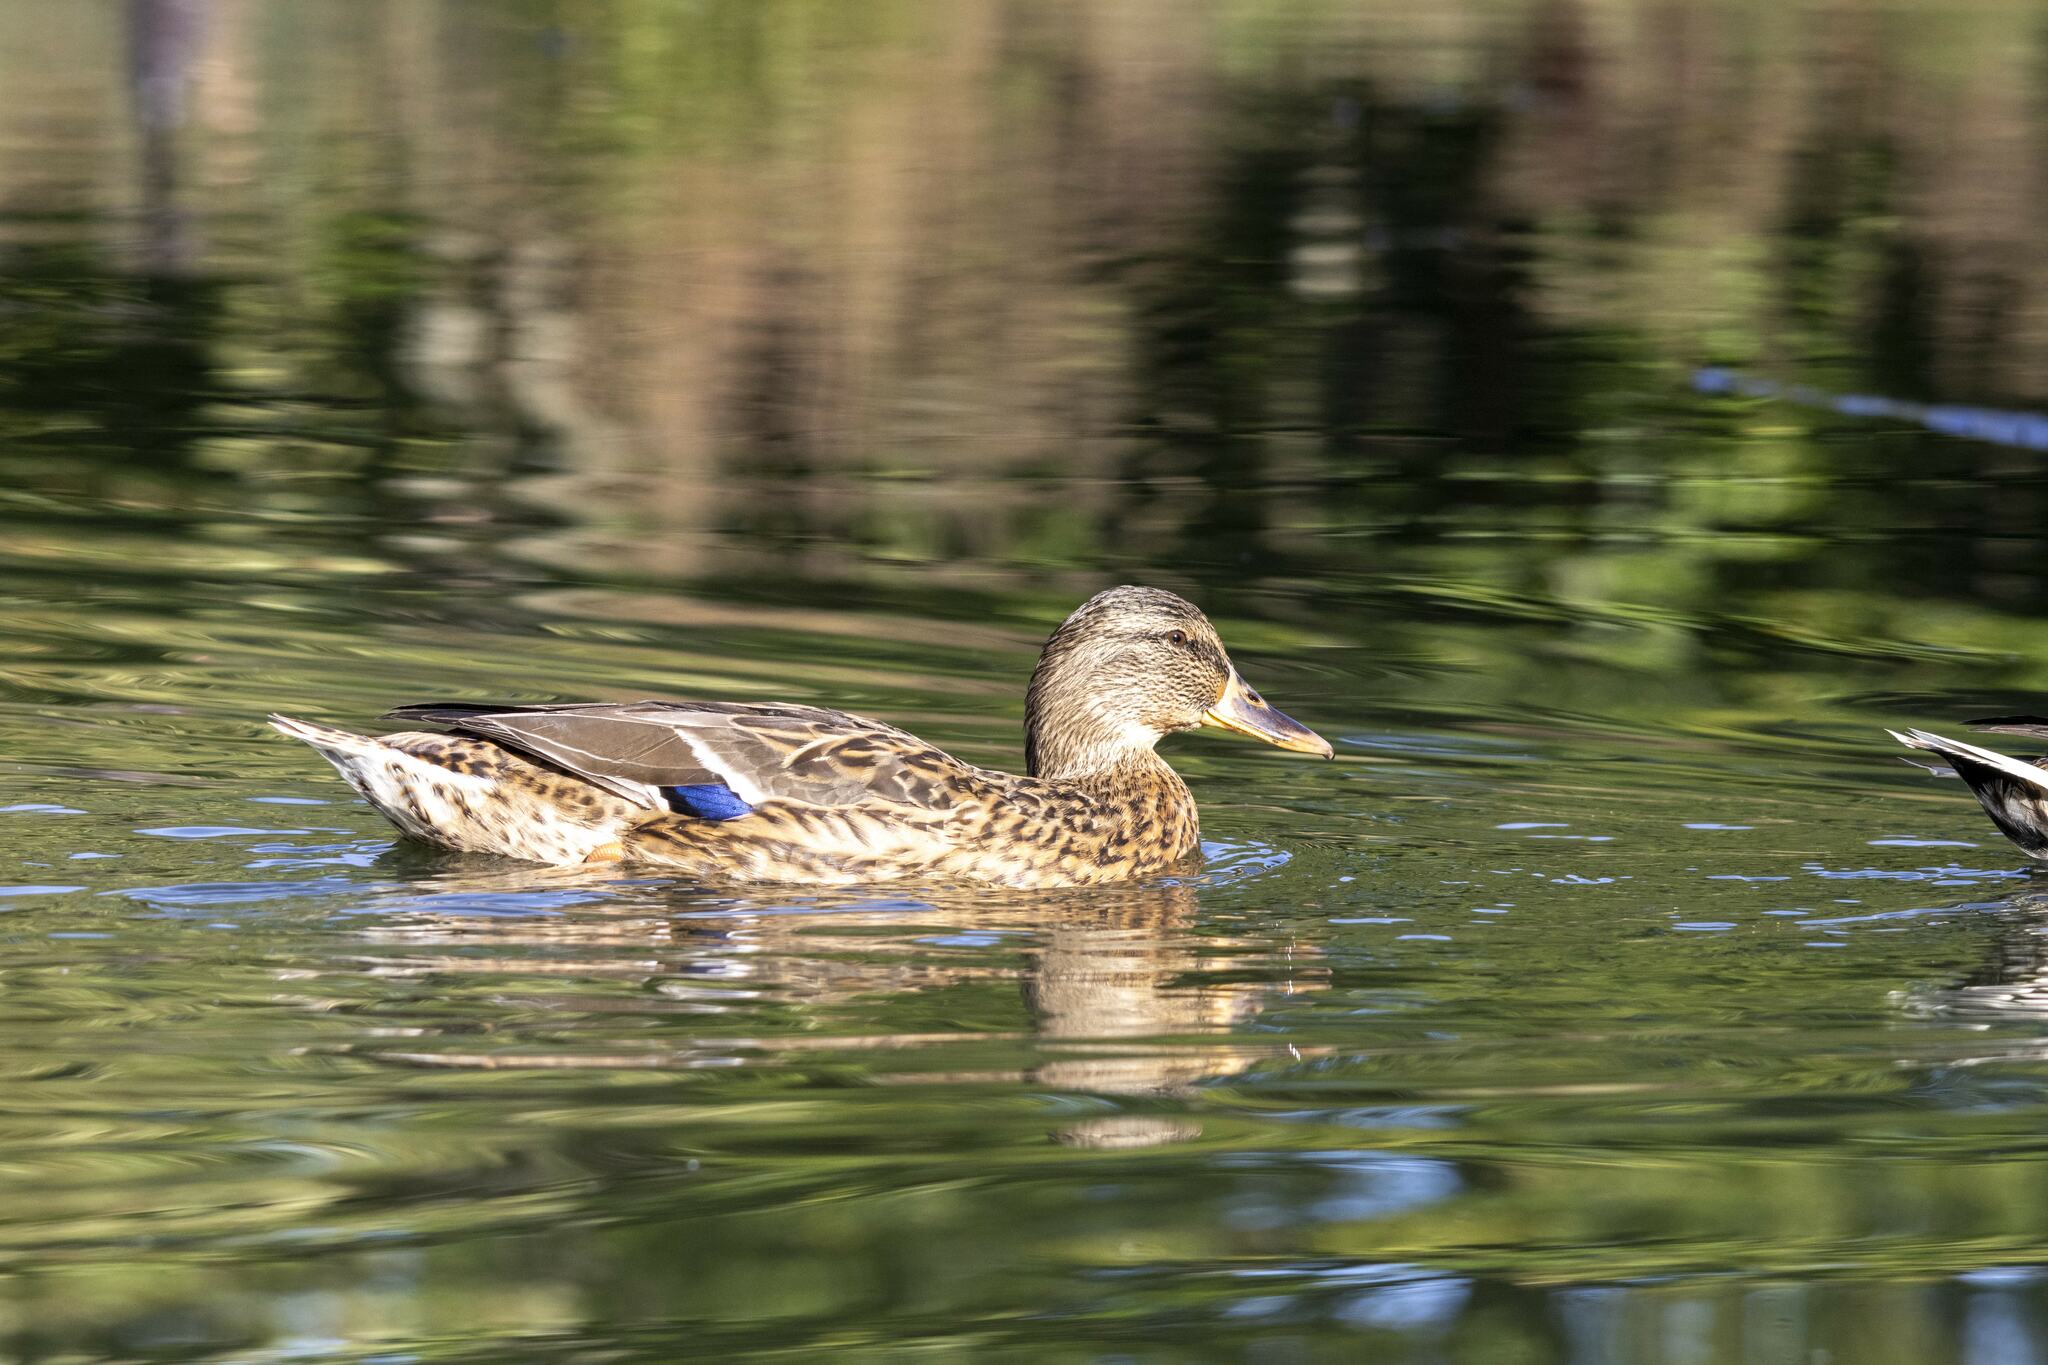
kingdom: Animalia
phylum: Chordata
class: Aves
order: Anseriformes
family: Anatidae
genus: Anas
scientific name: Anas platyrhynchos
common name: Mallard
